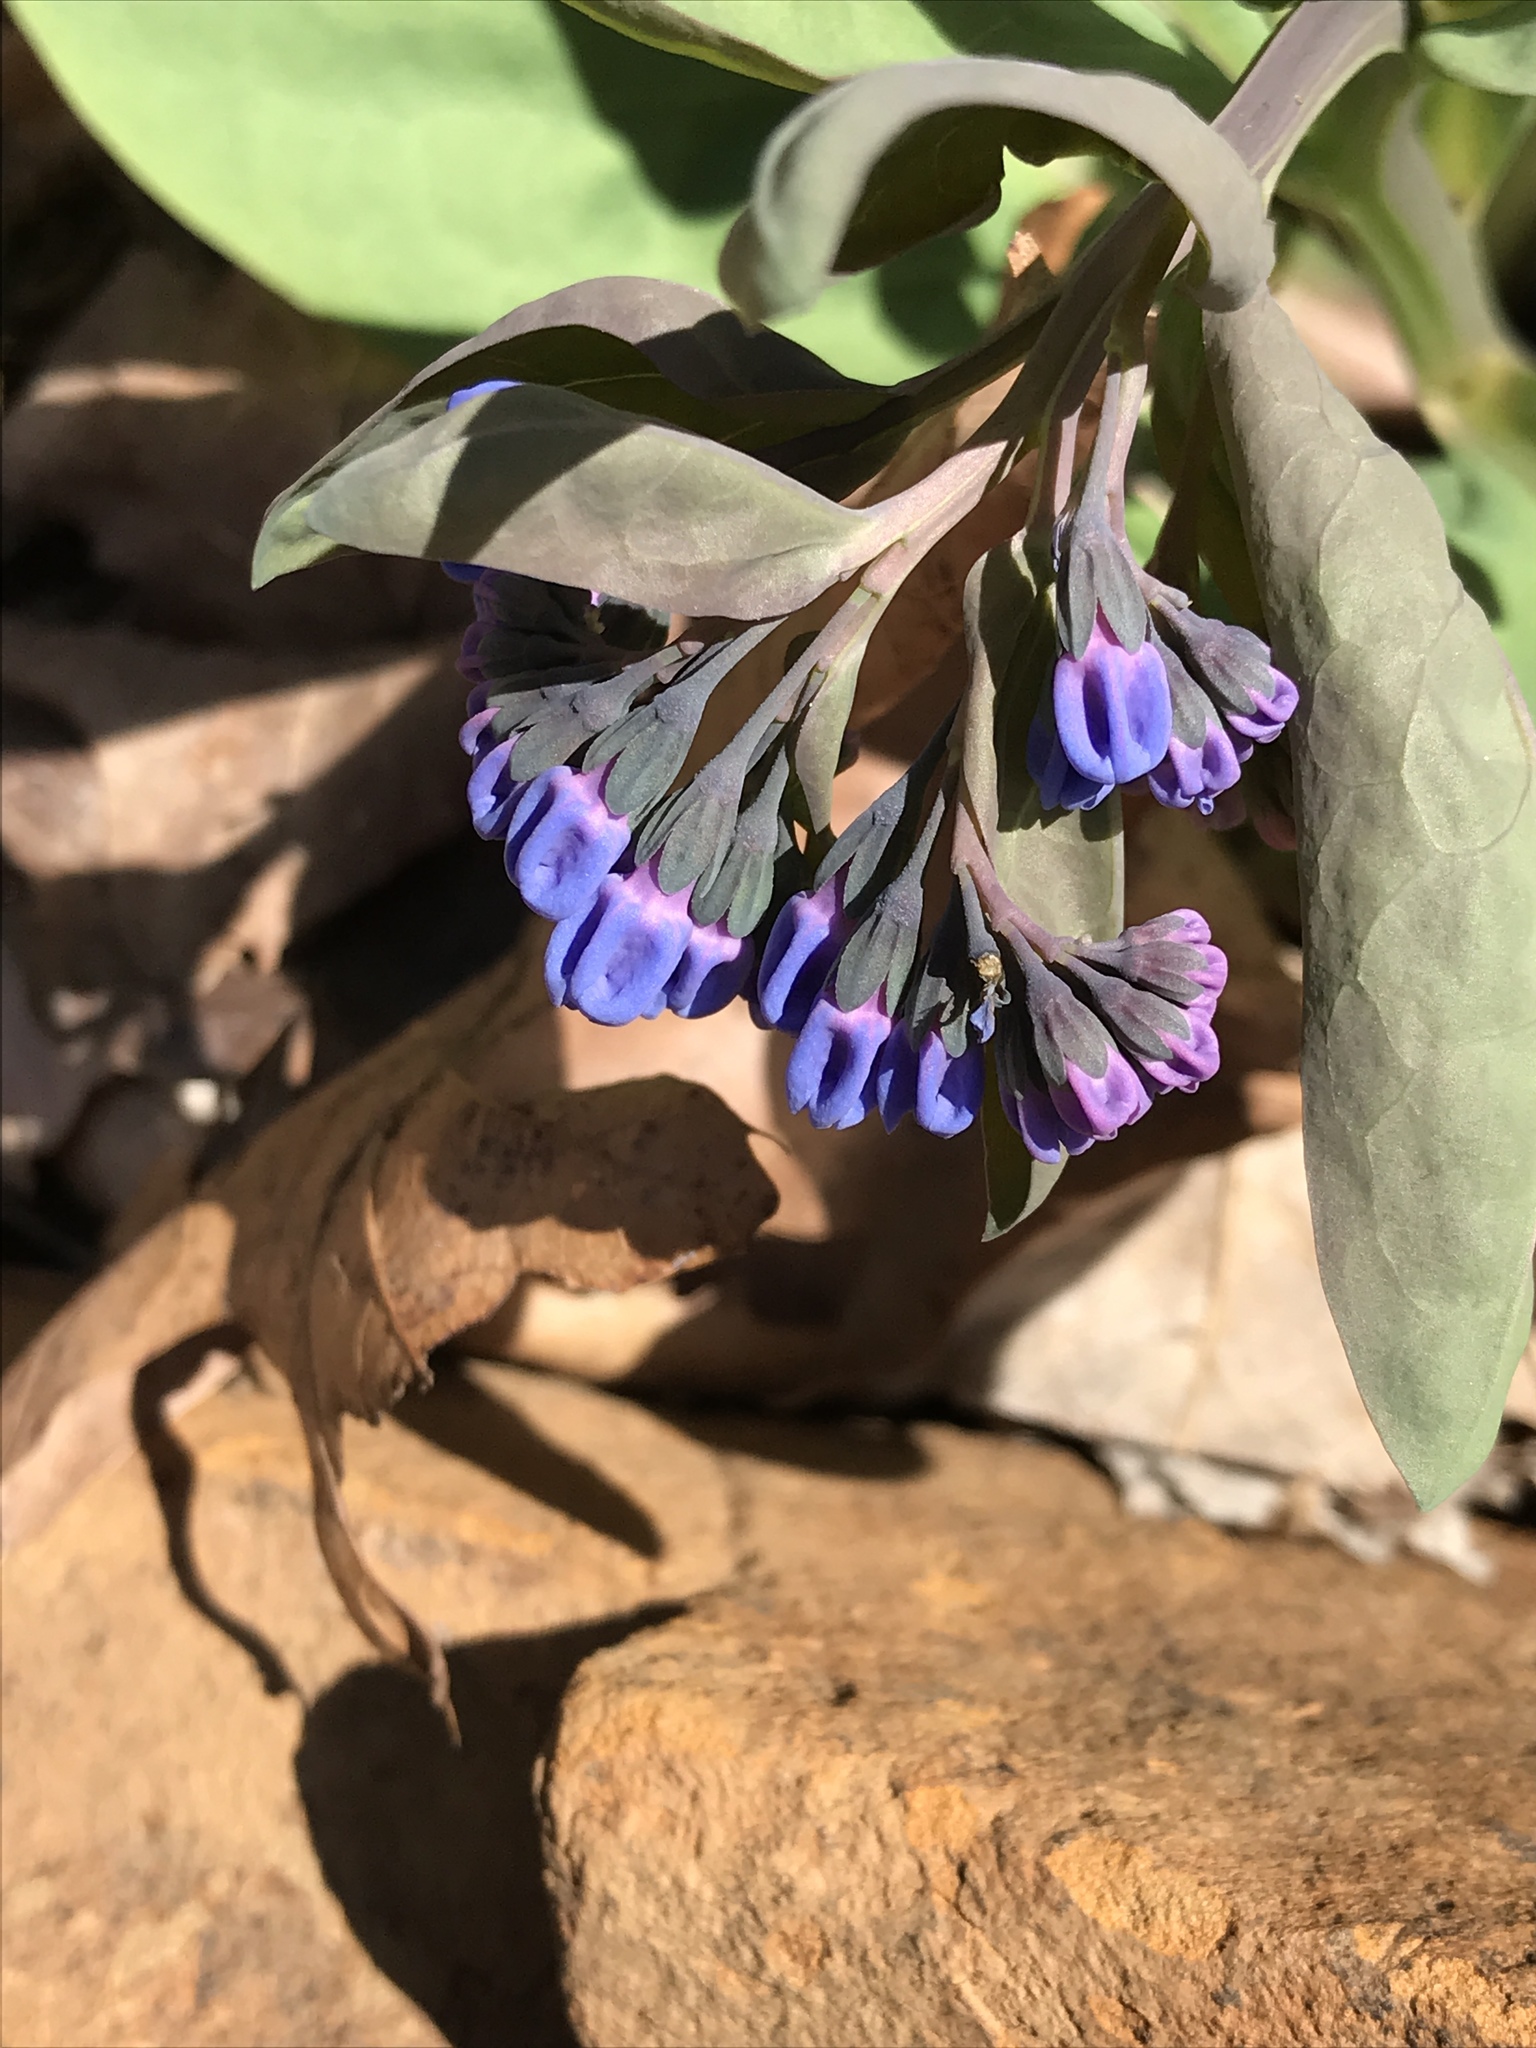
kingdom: Plantae
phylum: Tracheophyta
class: Magnoliopsida
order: Boraginales
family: Boraginaceae
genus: Mertensia
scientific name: Mertensia virginica
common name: Virginia bluebells
